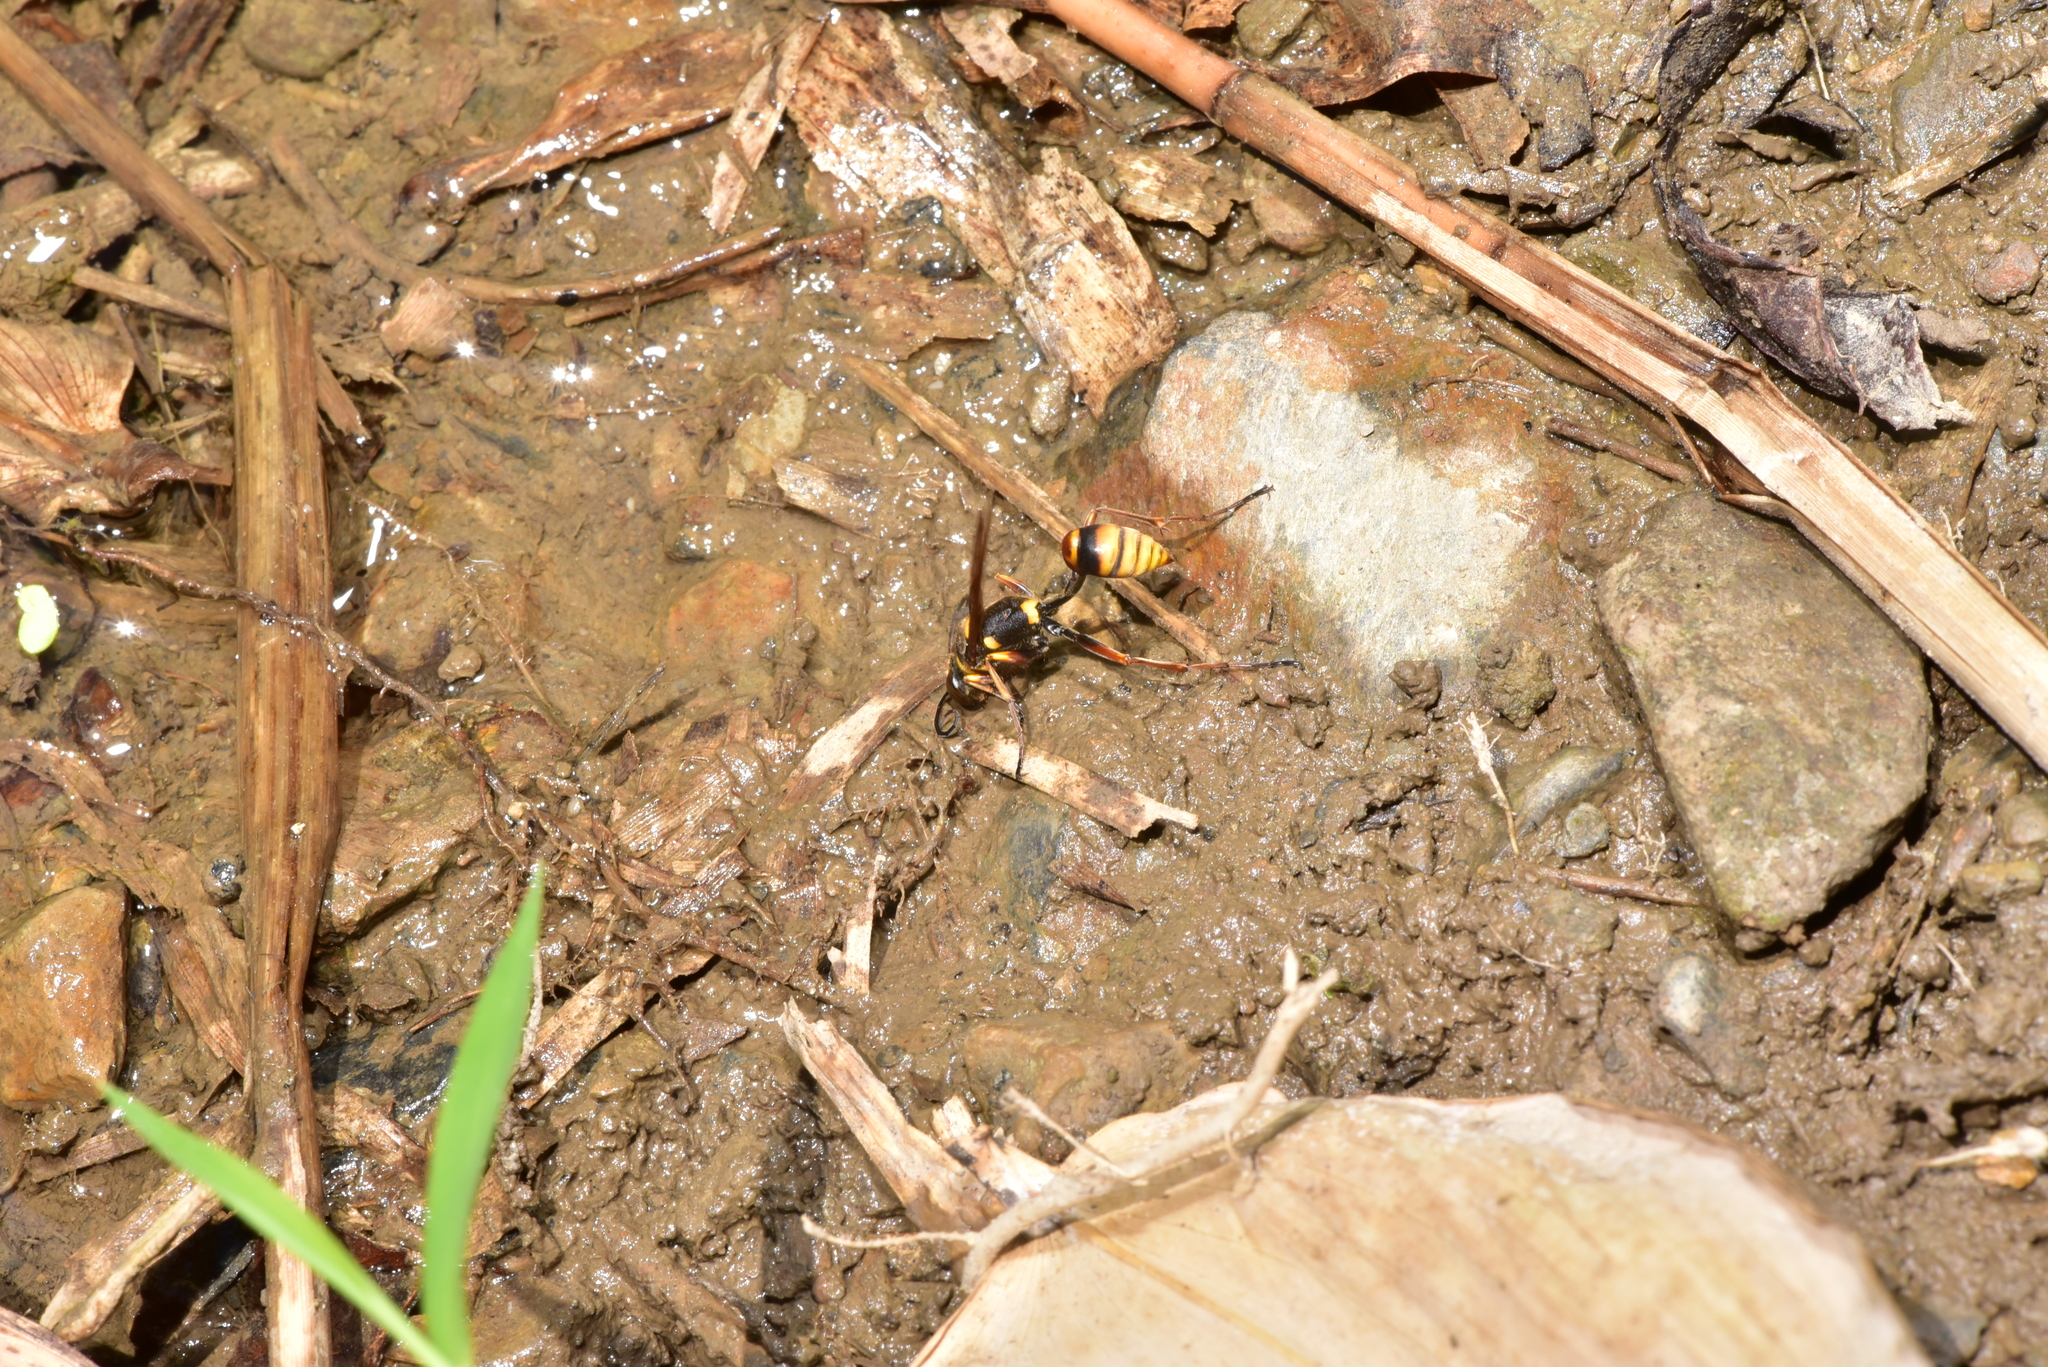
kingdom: Animalia
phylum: Arthropoda
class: Insecta
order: Hymenoptera
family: Sphecidae
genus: Sceliphron
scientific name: Sceliphron deforme
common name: Pelopèe
